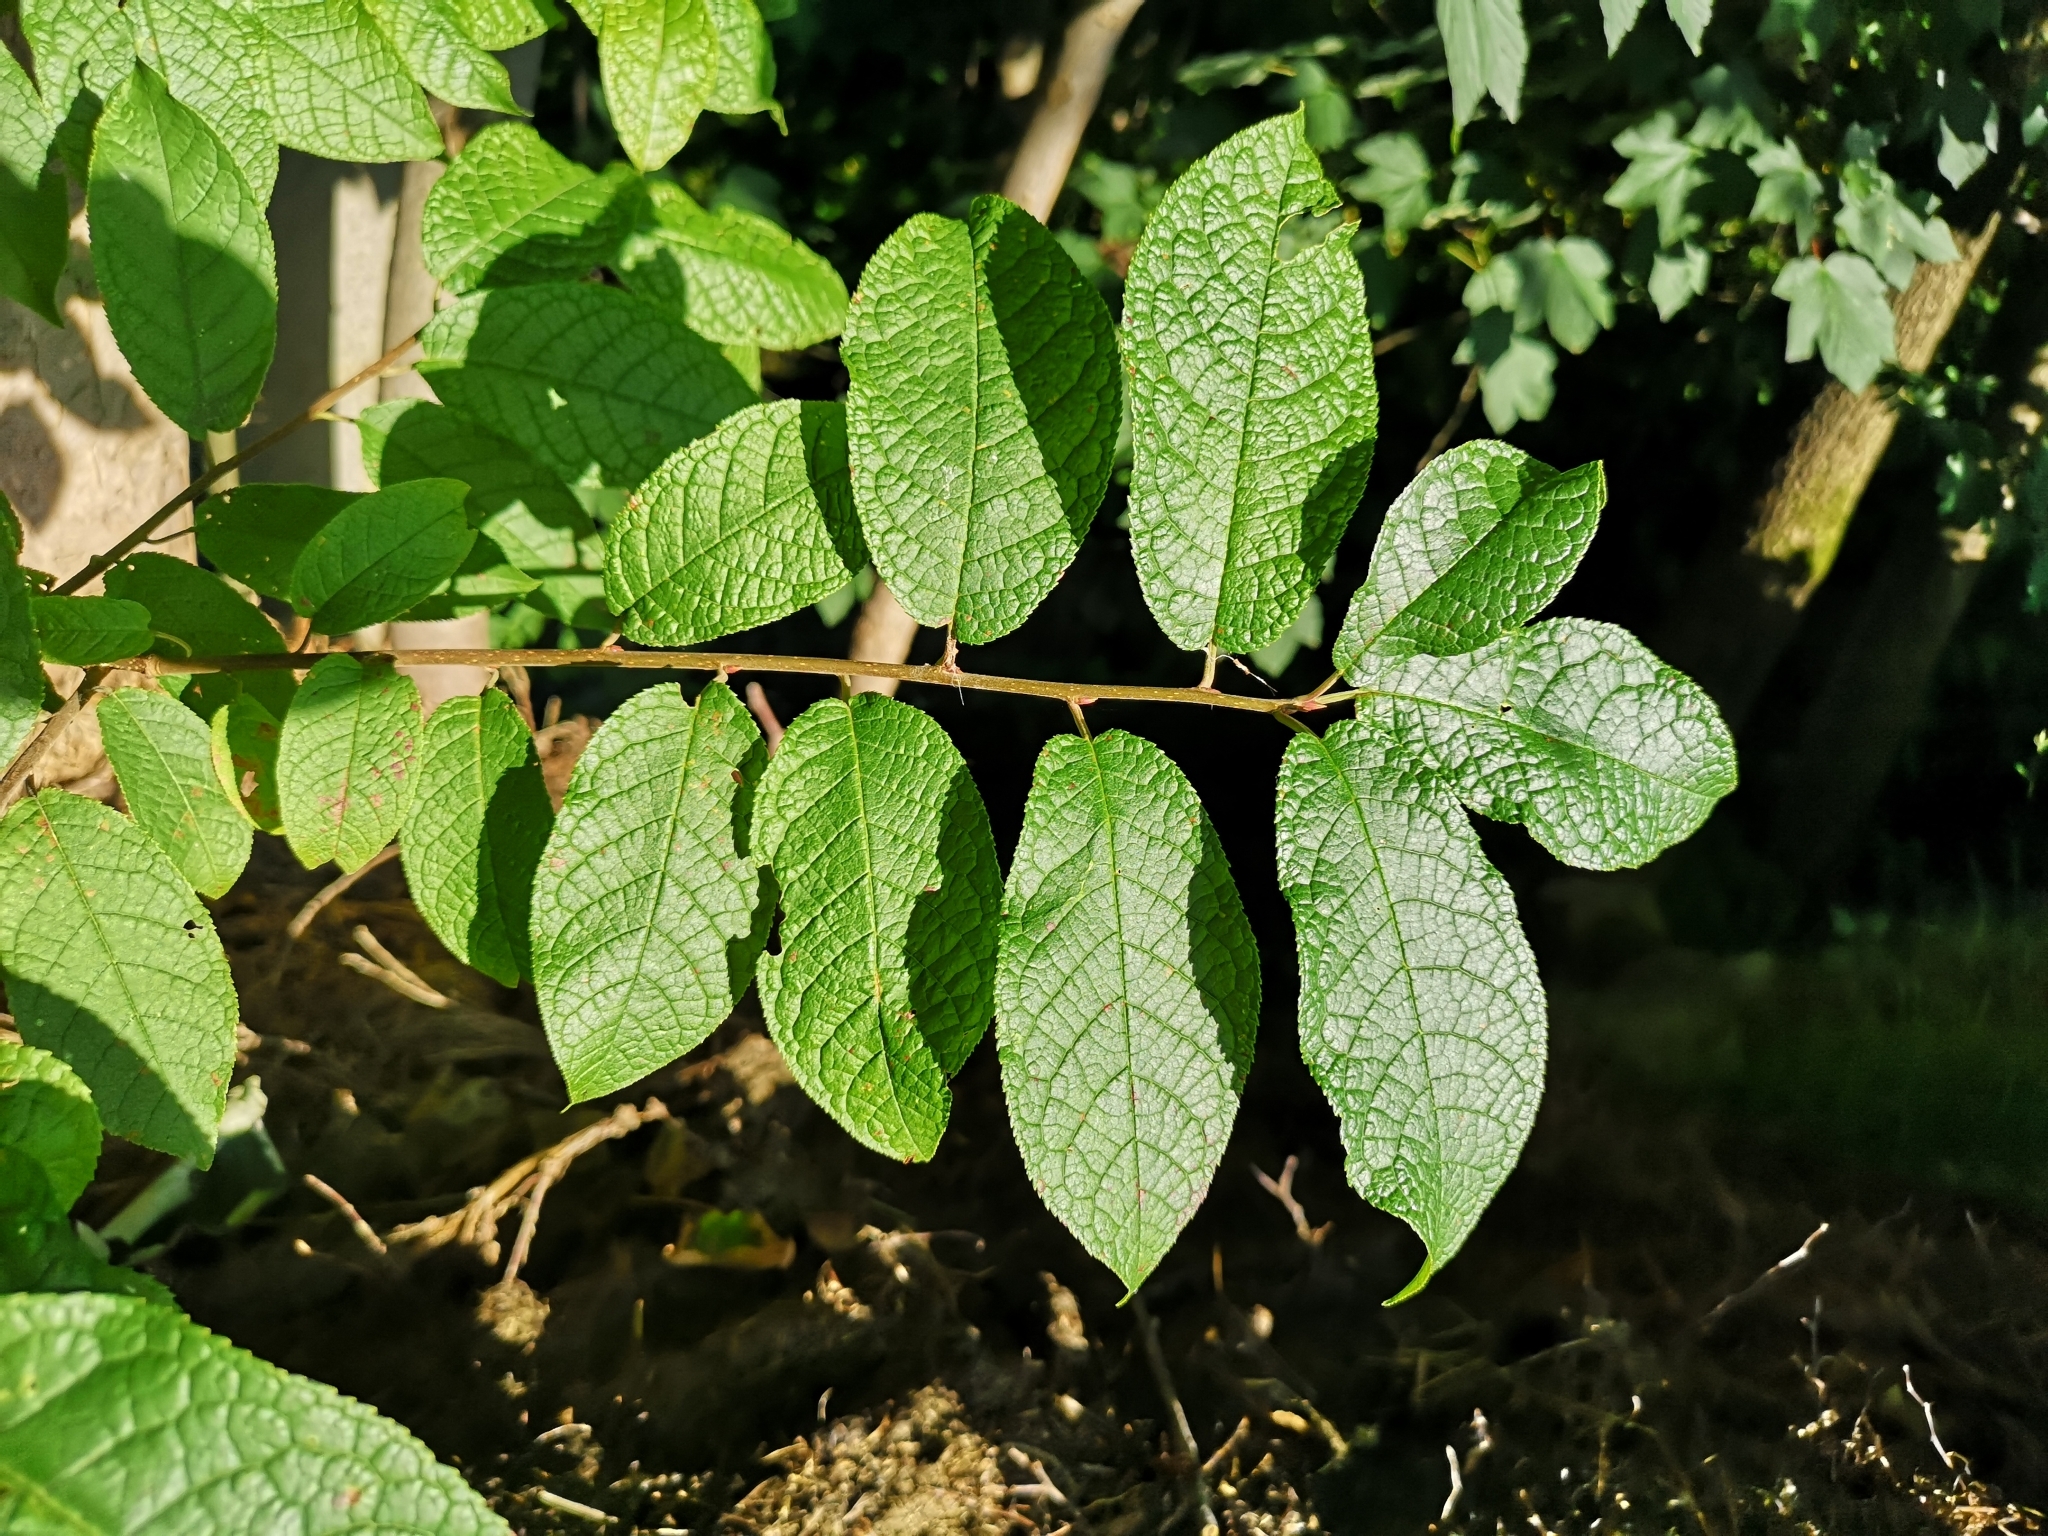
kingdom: Plantae
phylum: Tracheophyta
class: Magnoliopsida
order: Rosales
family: Rosaceae
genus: Prunus
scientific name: Prunus padus
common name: Bird cherry
